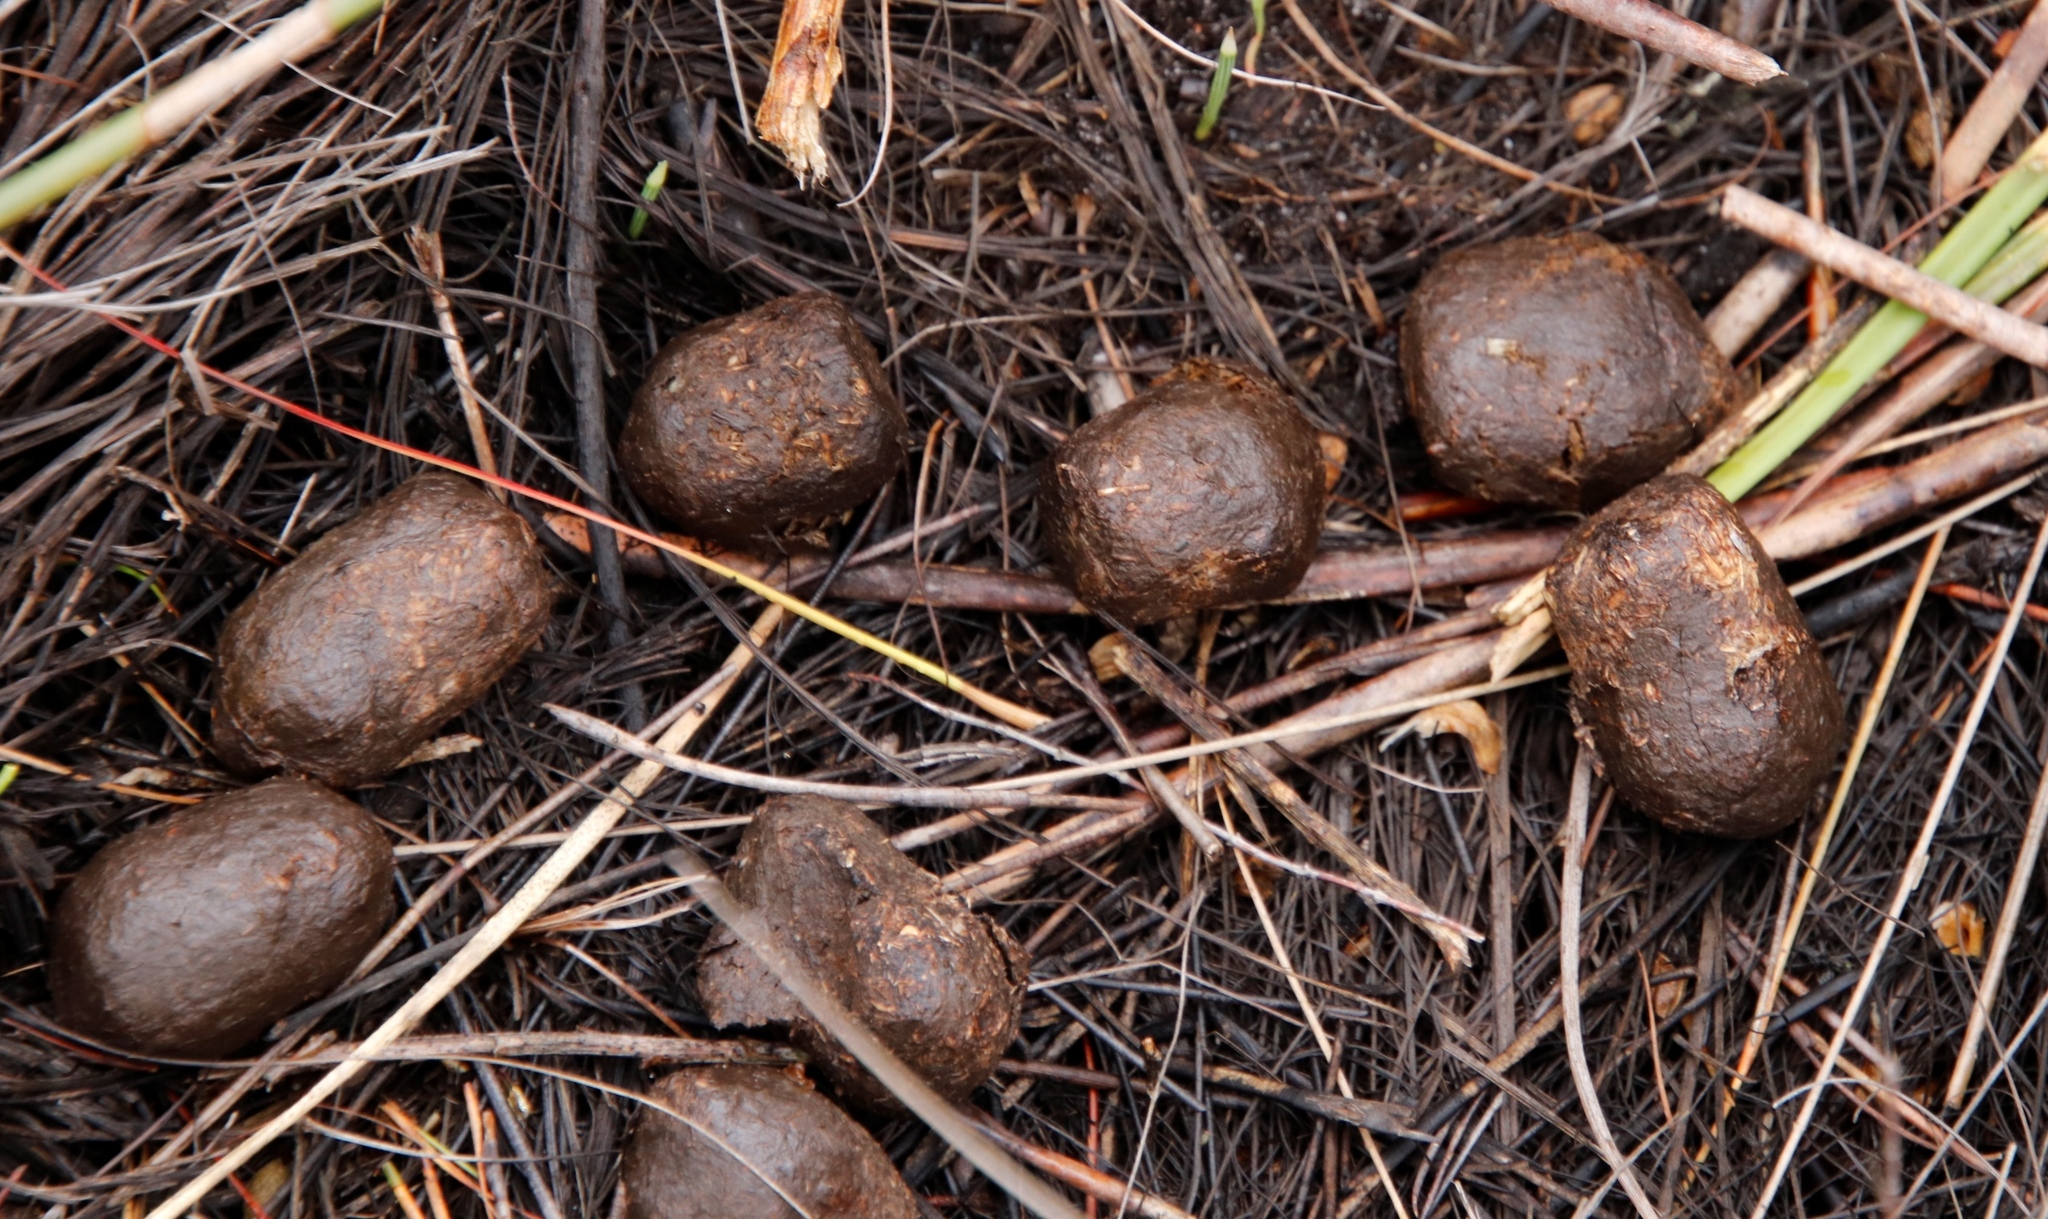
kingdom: Animalia
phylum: Chordata
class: Mammalia
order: Artiodactyla
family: Bovidae
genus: Damaliscus
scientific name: Damaliscus pygargus
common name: Bontebok
